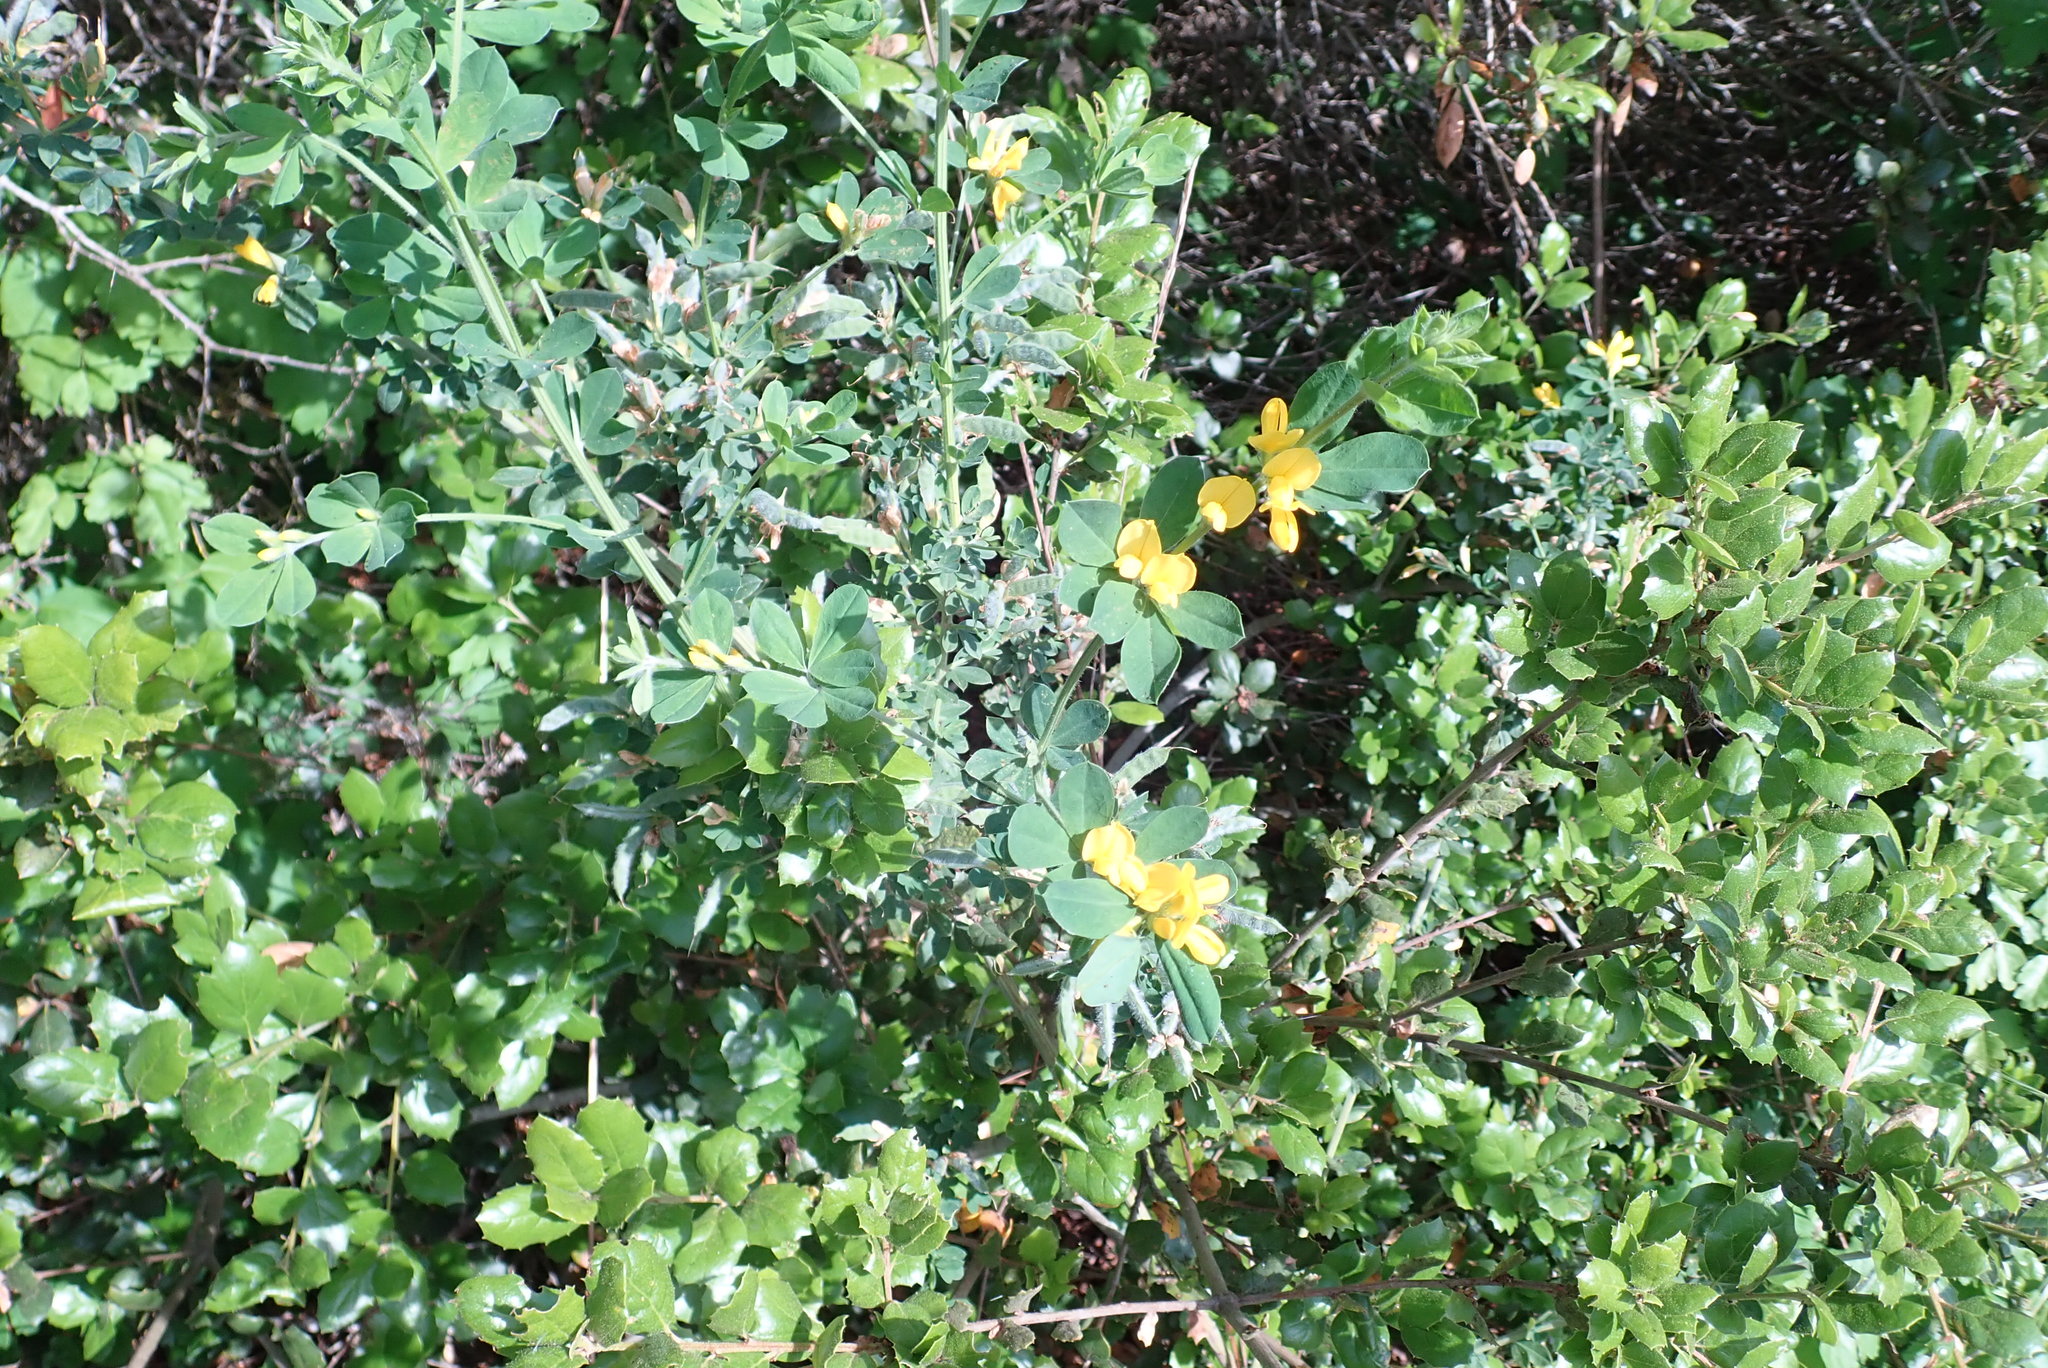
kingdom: Plantae
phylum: Tracheophyta
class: Magnoliopsida
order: Fabales
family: Fabaceae
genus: Genista
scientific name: Genista monspessulana
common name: Montpellier broom
